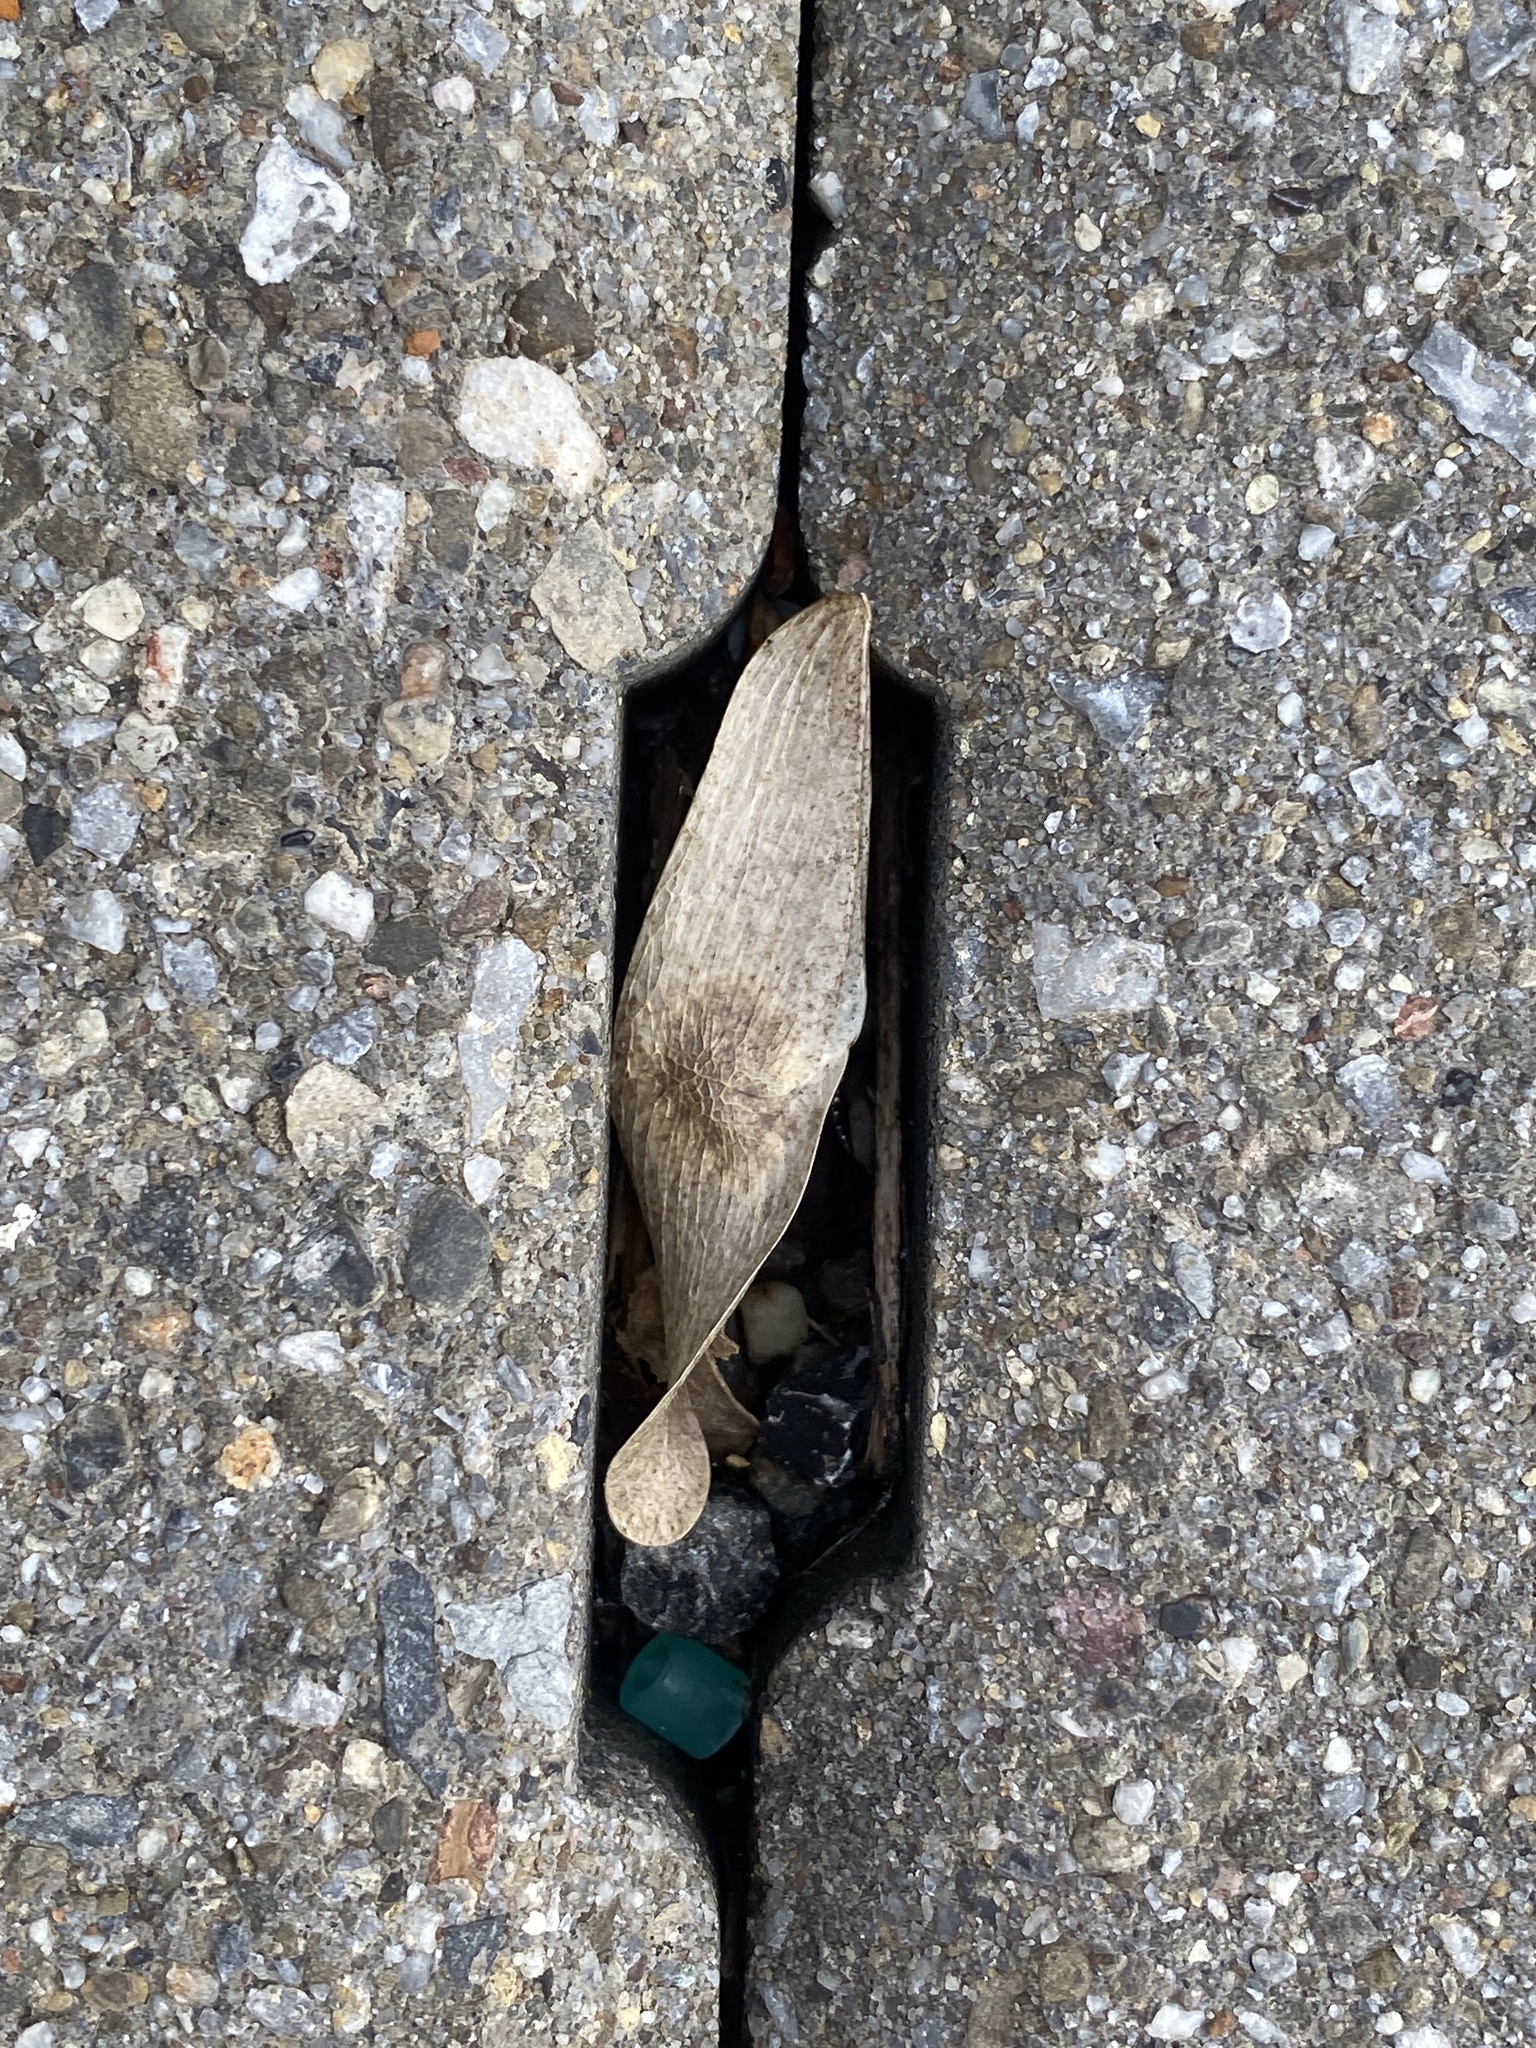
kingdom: Plantae
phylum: Tracheophyta
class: Magnoliopsida
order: Sapindales
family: Simaroubaceae
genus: Ailanthus
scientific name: Ailanthus altissima
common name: Tree-of-heaven
